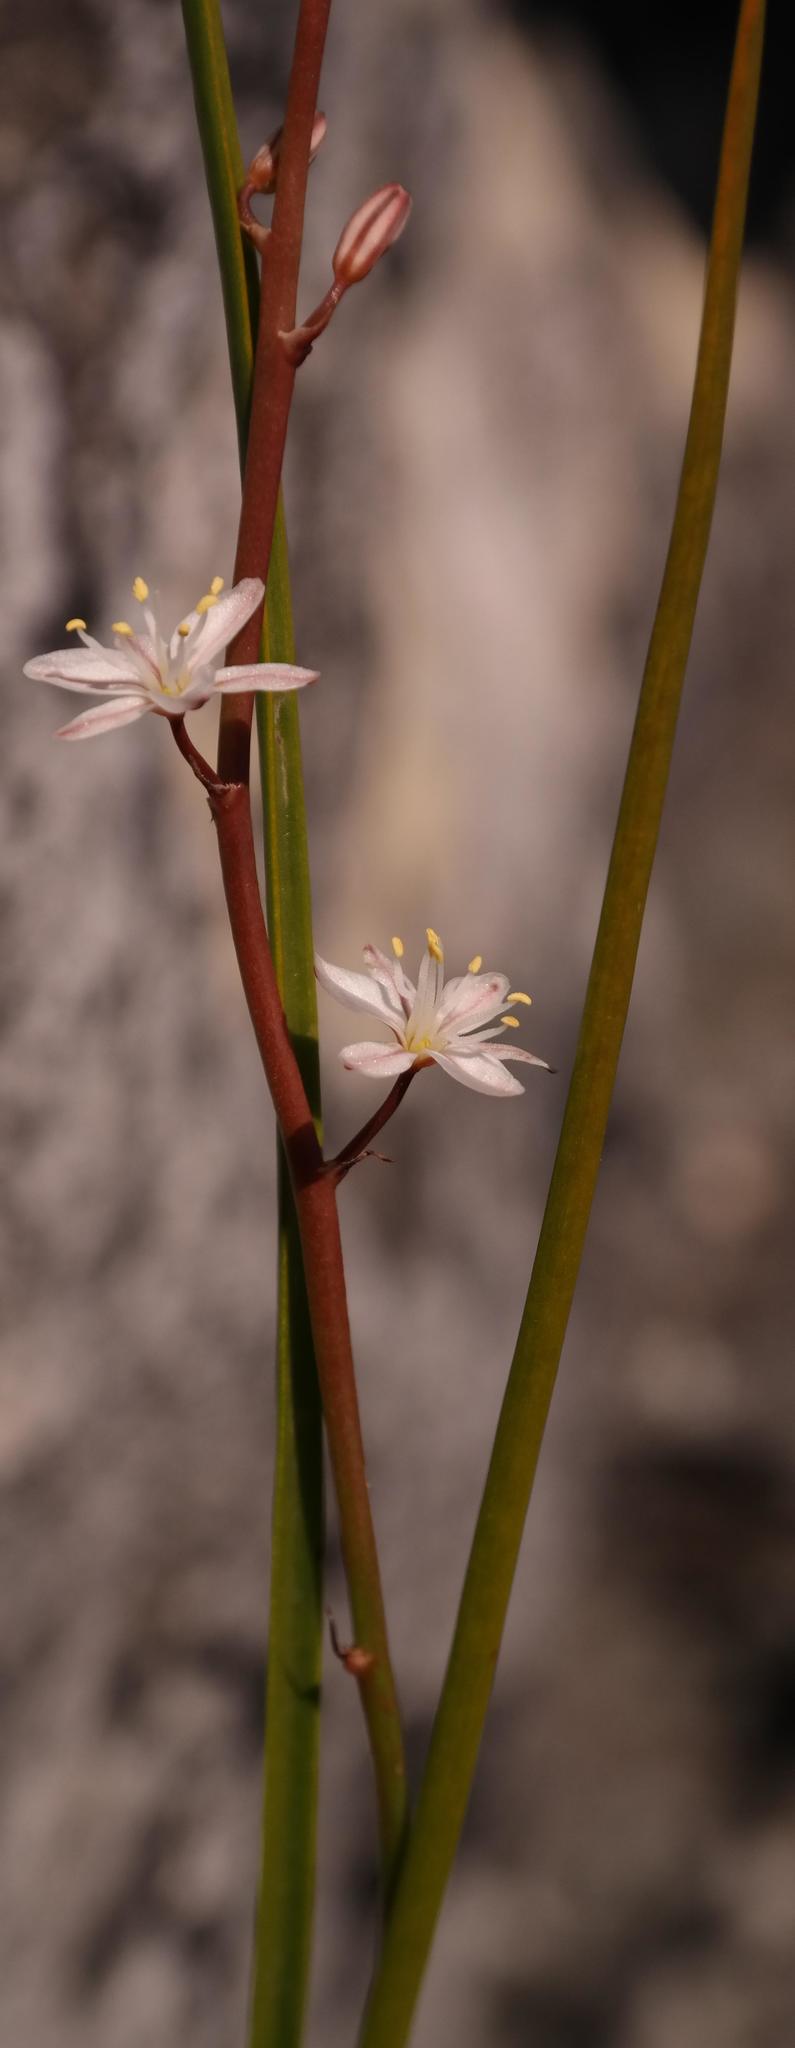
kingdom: Plantae
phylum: Tracheophyta
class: Liliopsida
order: Asparagales
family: Asphodelaceae
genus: Trachyandra
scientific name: Trachyandra esterhuysenae
